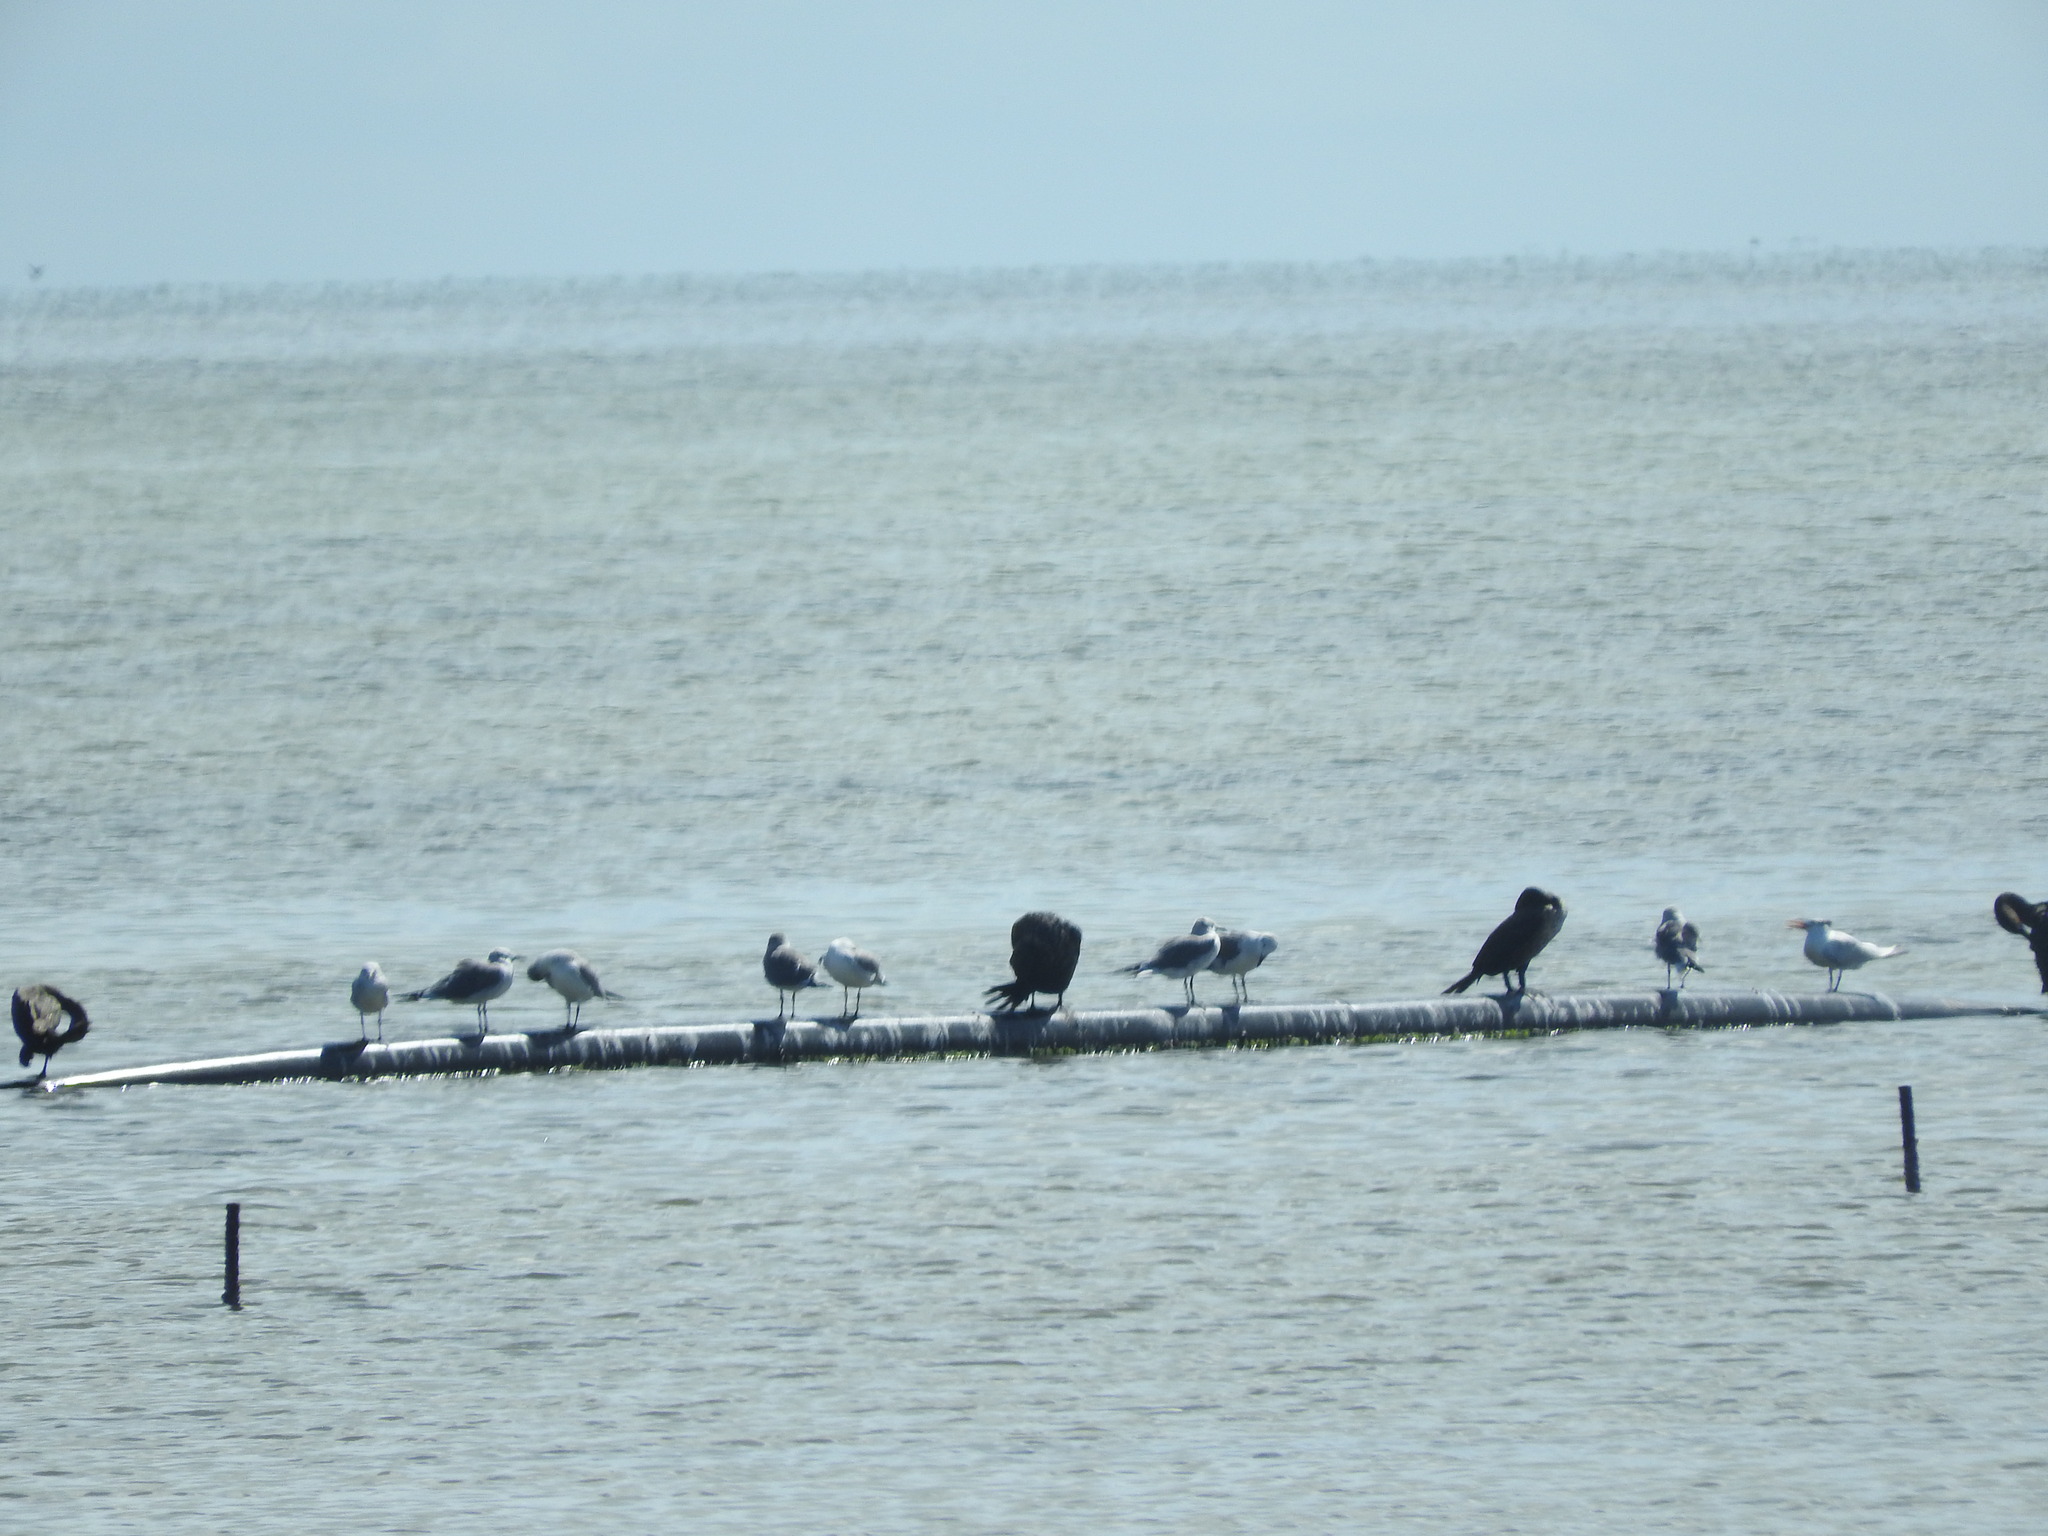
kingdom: Animalia
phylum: Chordata
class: Aves
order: Suliformes
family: Phalacrocoracidae
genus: Phalacrocorax
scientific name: Phalacrocorax brasilianus
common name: Neotropic cormorant
